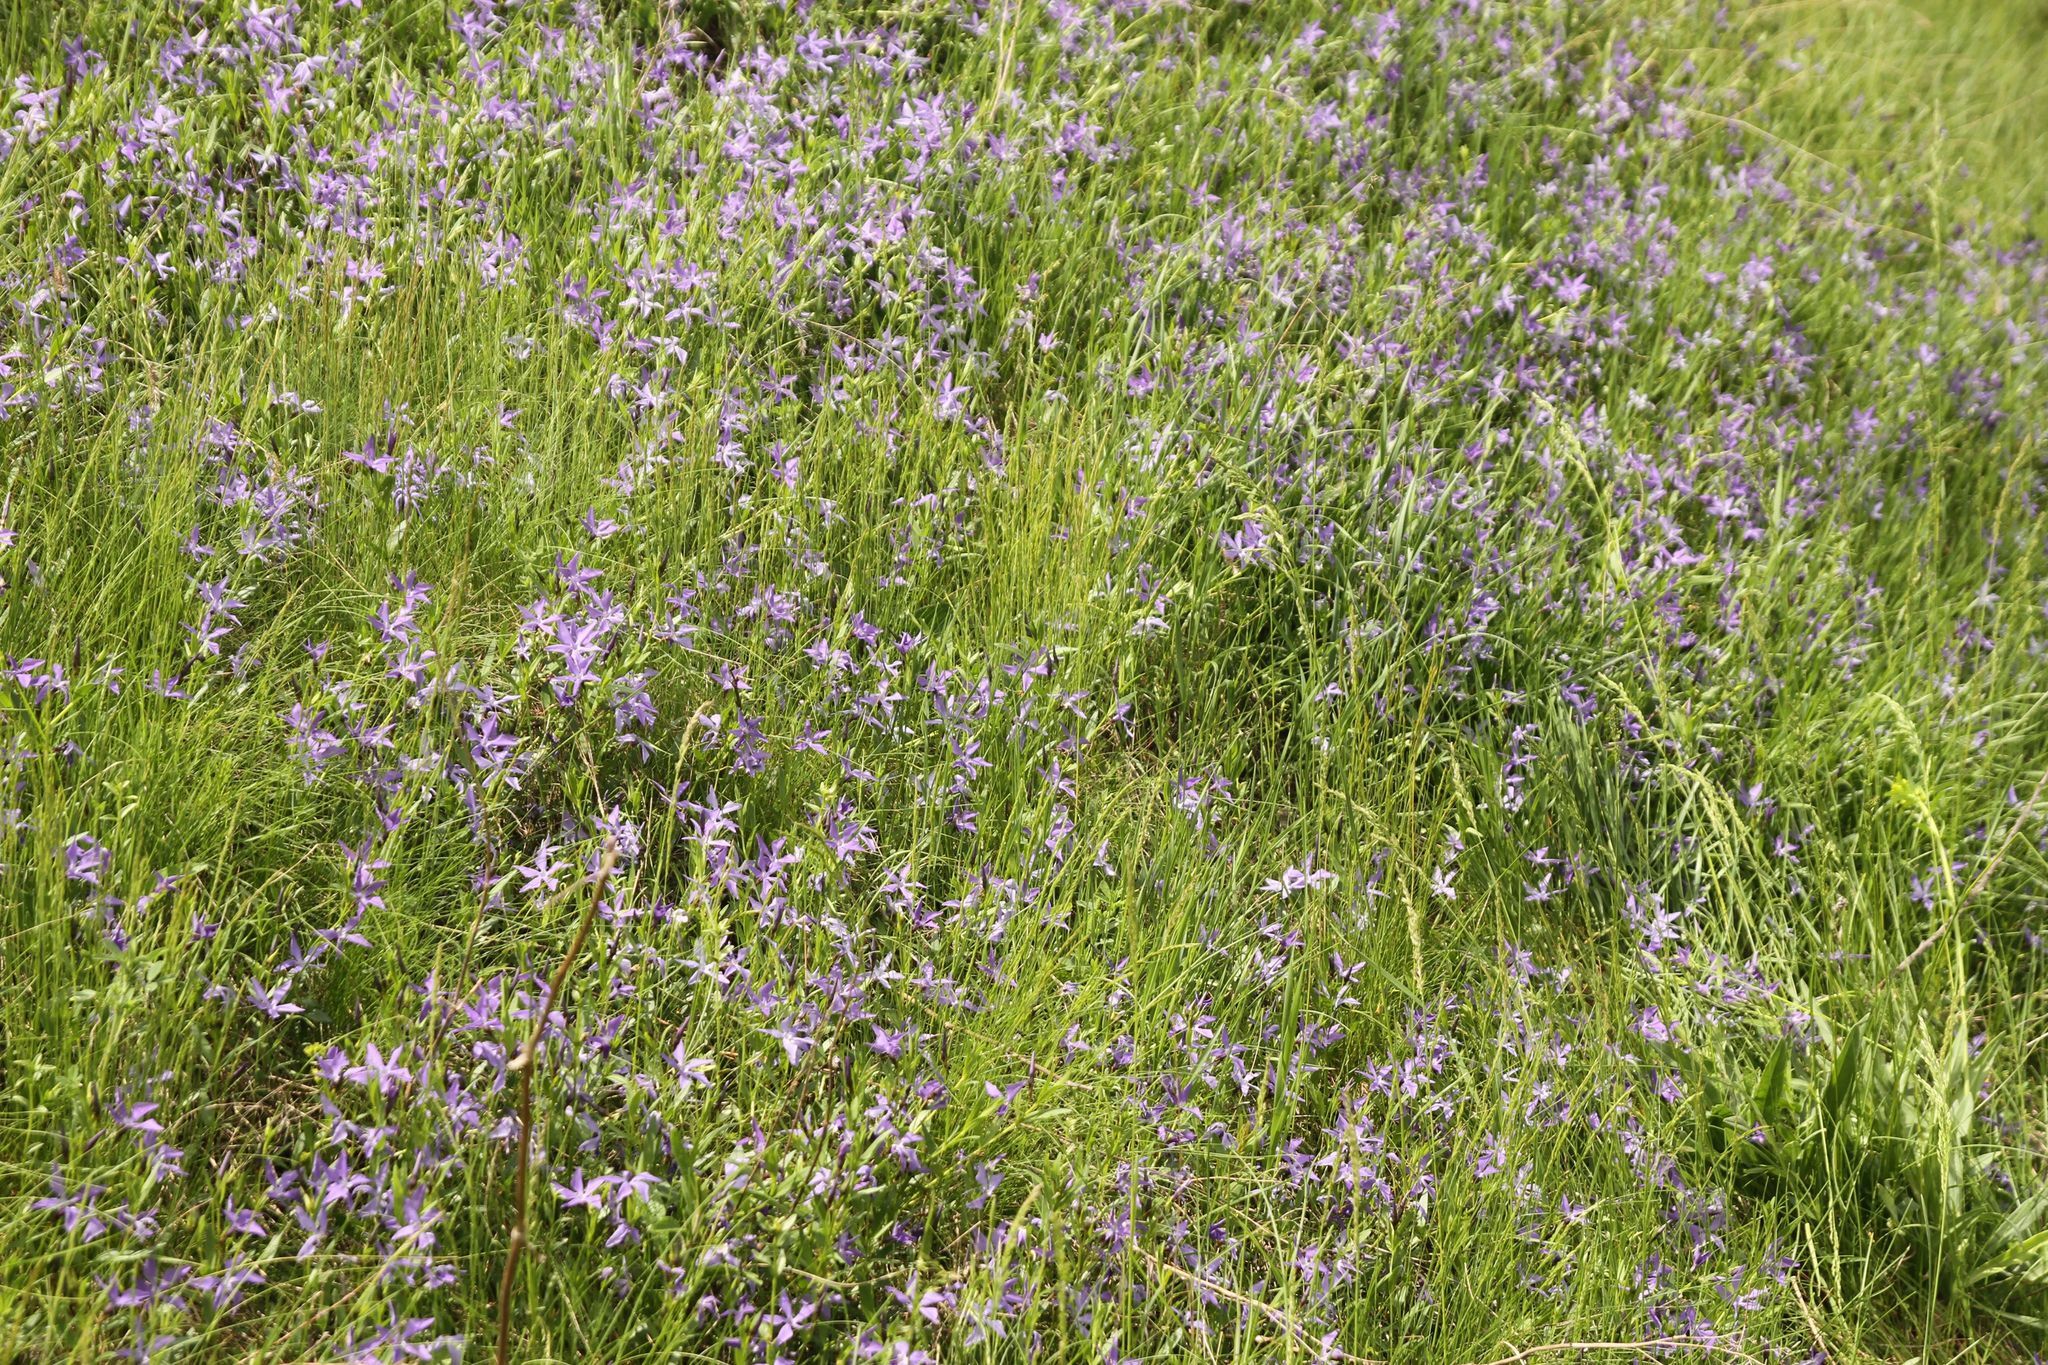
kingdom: Plantae
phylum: Tracheophyta
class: Magnoliopsida
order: Gentianales
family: Apocynaceae
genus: Vinca
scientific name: Vinca herbacea
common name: Herbaceous periwinkle
